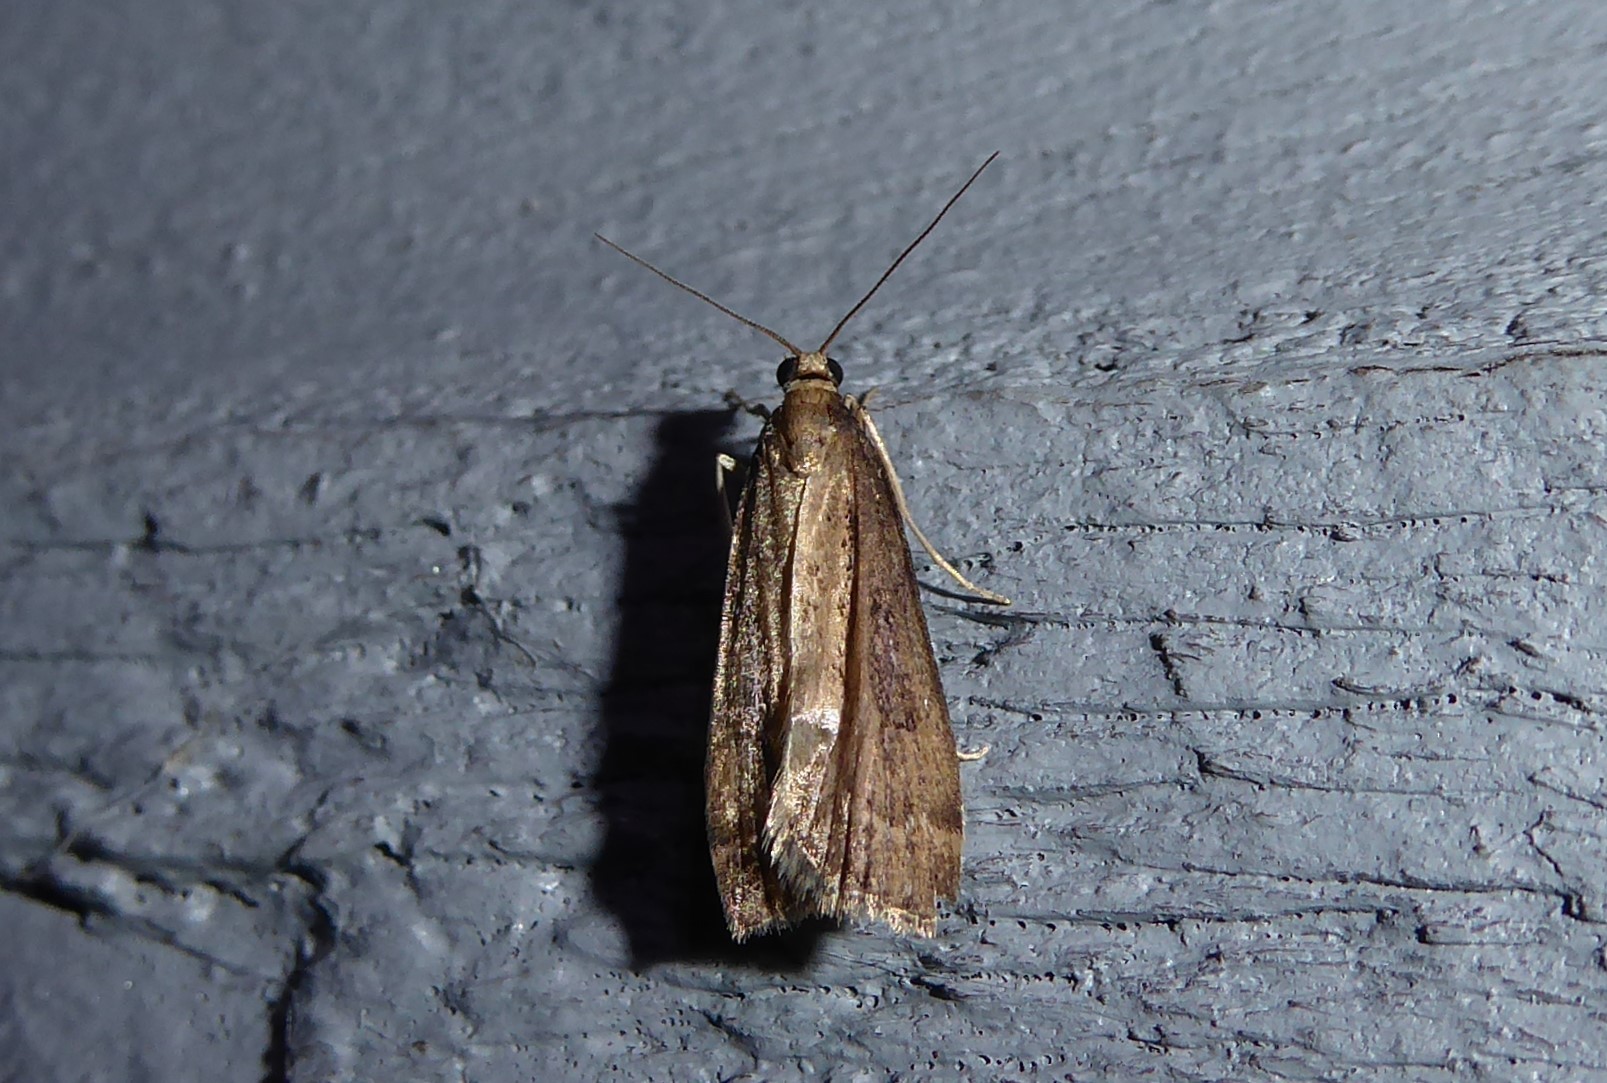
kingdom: Animalia
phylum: Arthropoda
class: Insecta
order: Lepidoptera
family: Crambidae
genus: Eudonia
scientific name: Eudonia octophora
